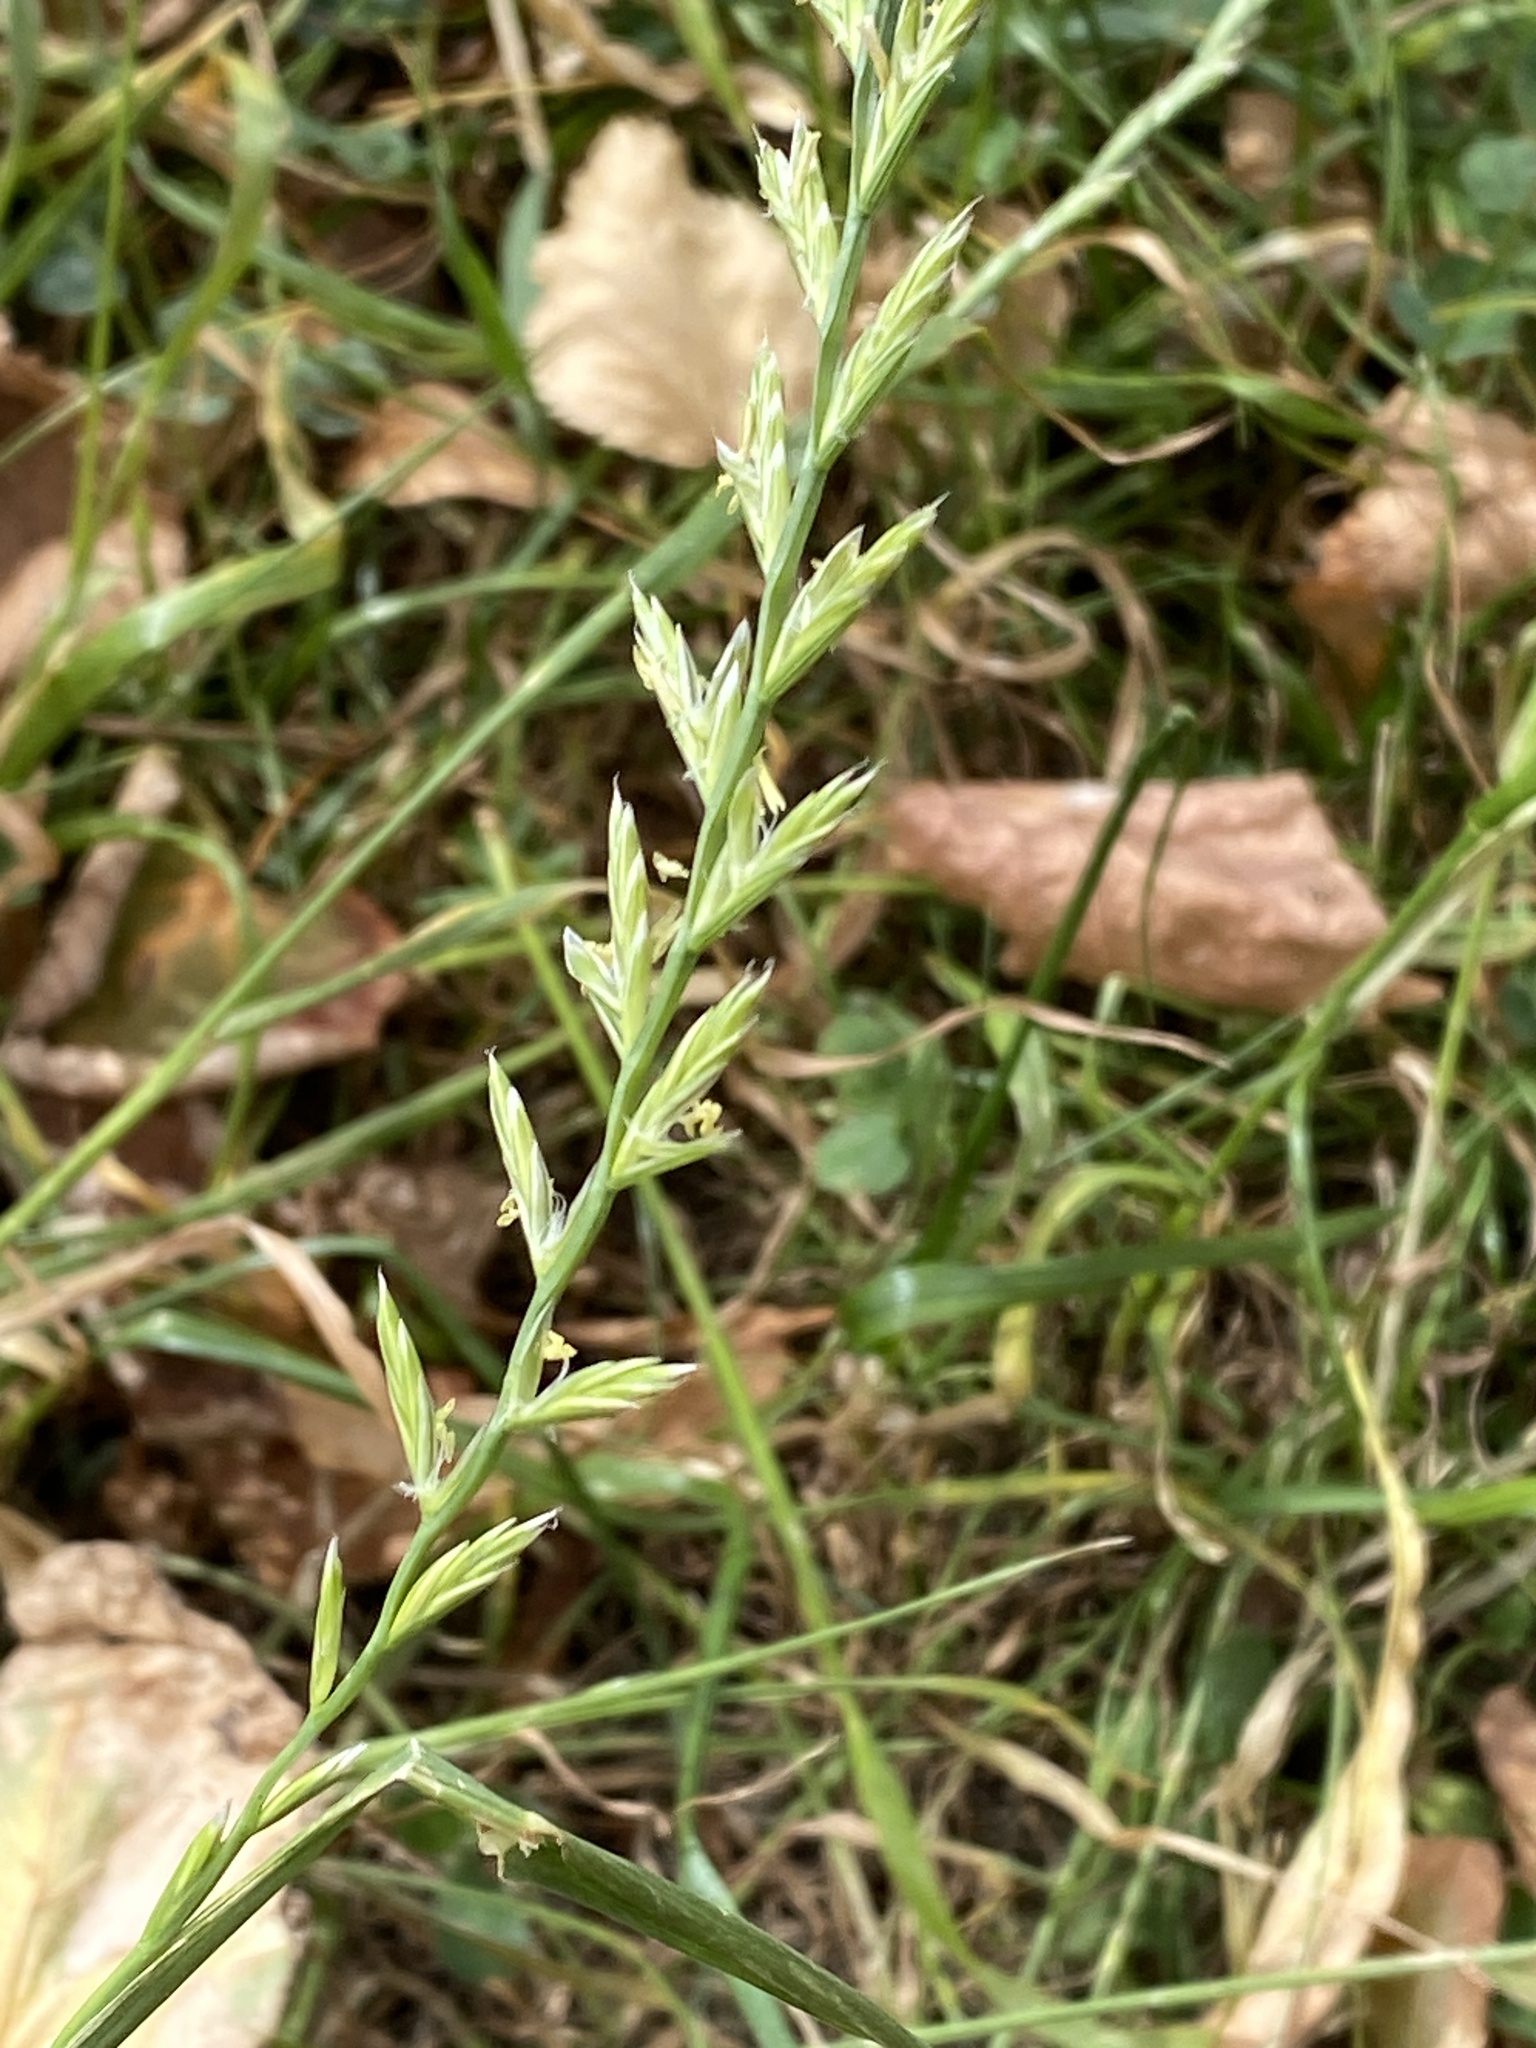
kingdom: Plantae
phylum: Tracheophyta
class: Liliopsida
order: Poales
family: Poaceae
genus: Lolium
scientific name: Lolium perenne
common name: Perennial ryegrass
